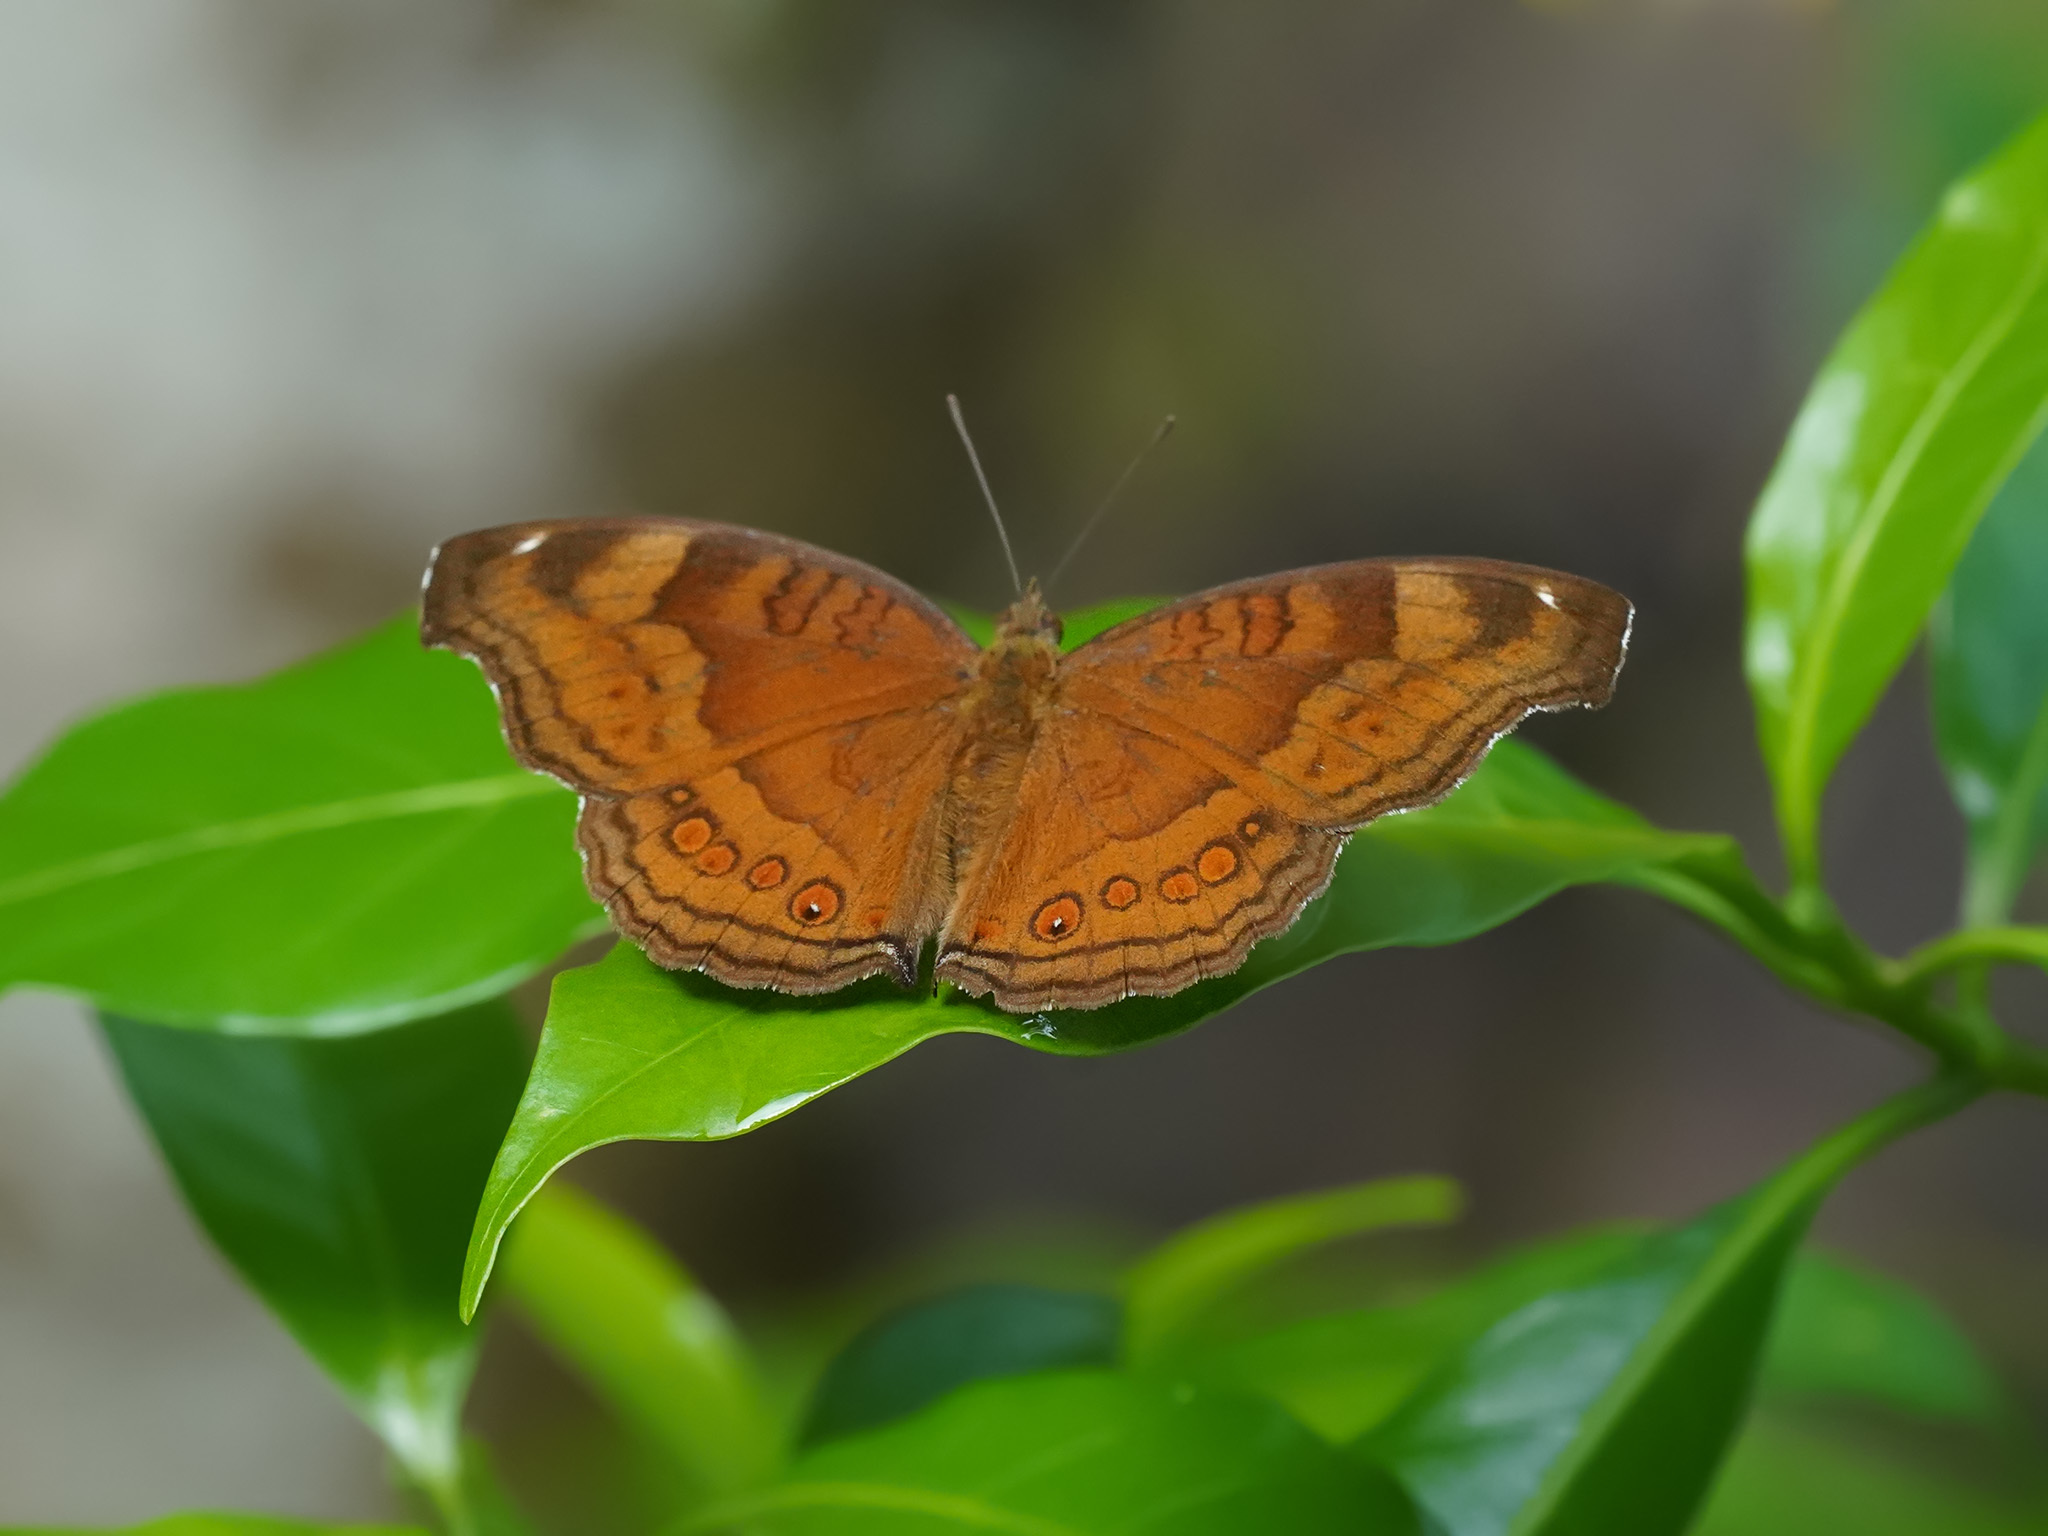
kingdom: Animalia
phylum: Arthropoda
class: Insecta
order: Lepidoptera
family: Nymphalidae
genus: Junonia
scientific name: Junonia hedonia
